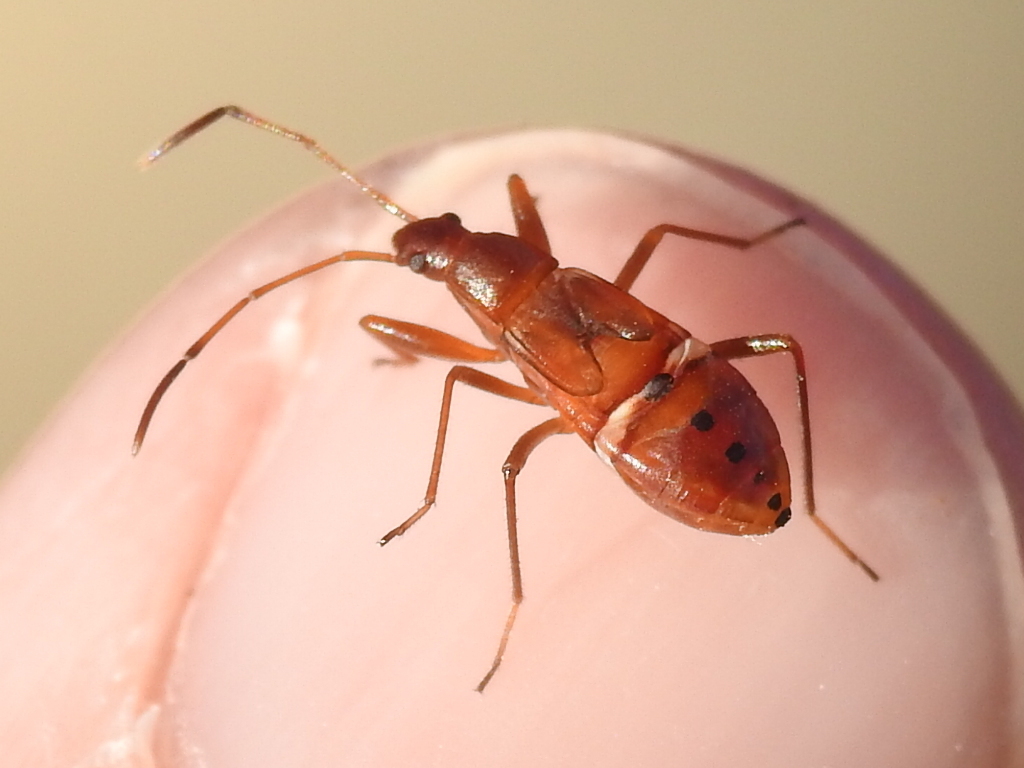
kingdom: Animalia
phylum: Arthropoda
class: Insecta
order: Hemiptera
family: Rhyparochromidae
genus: Cnemodus
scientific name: Cnemodus mavortius
